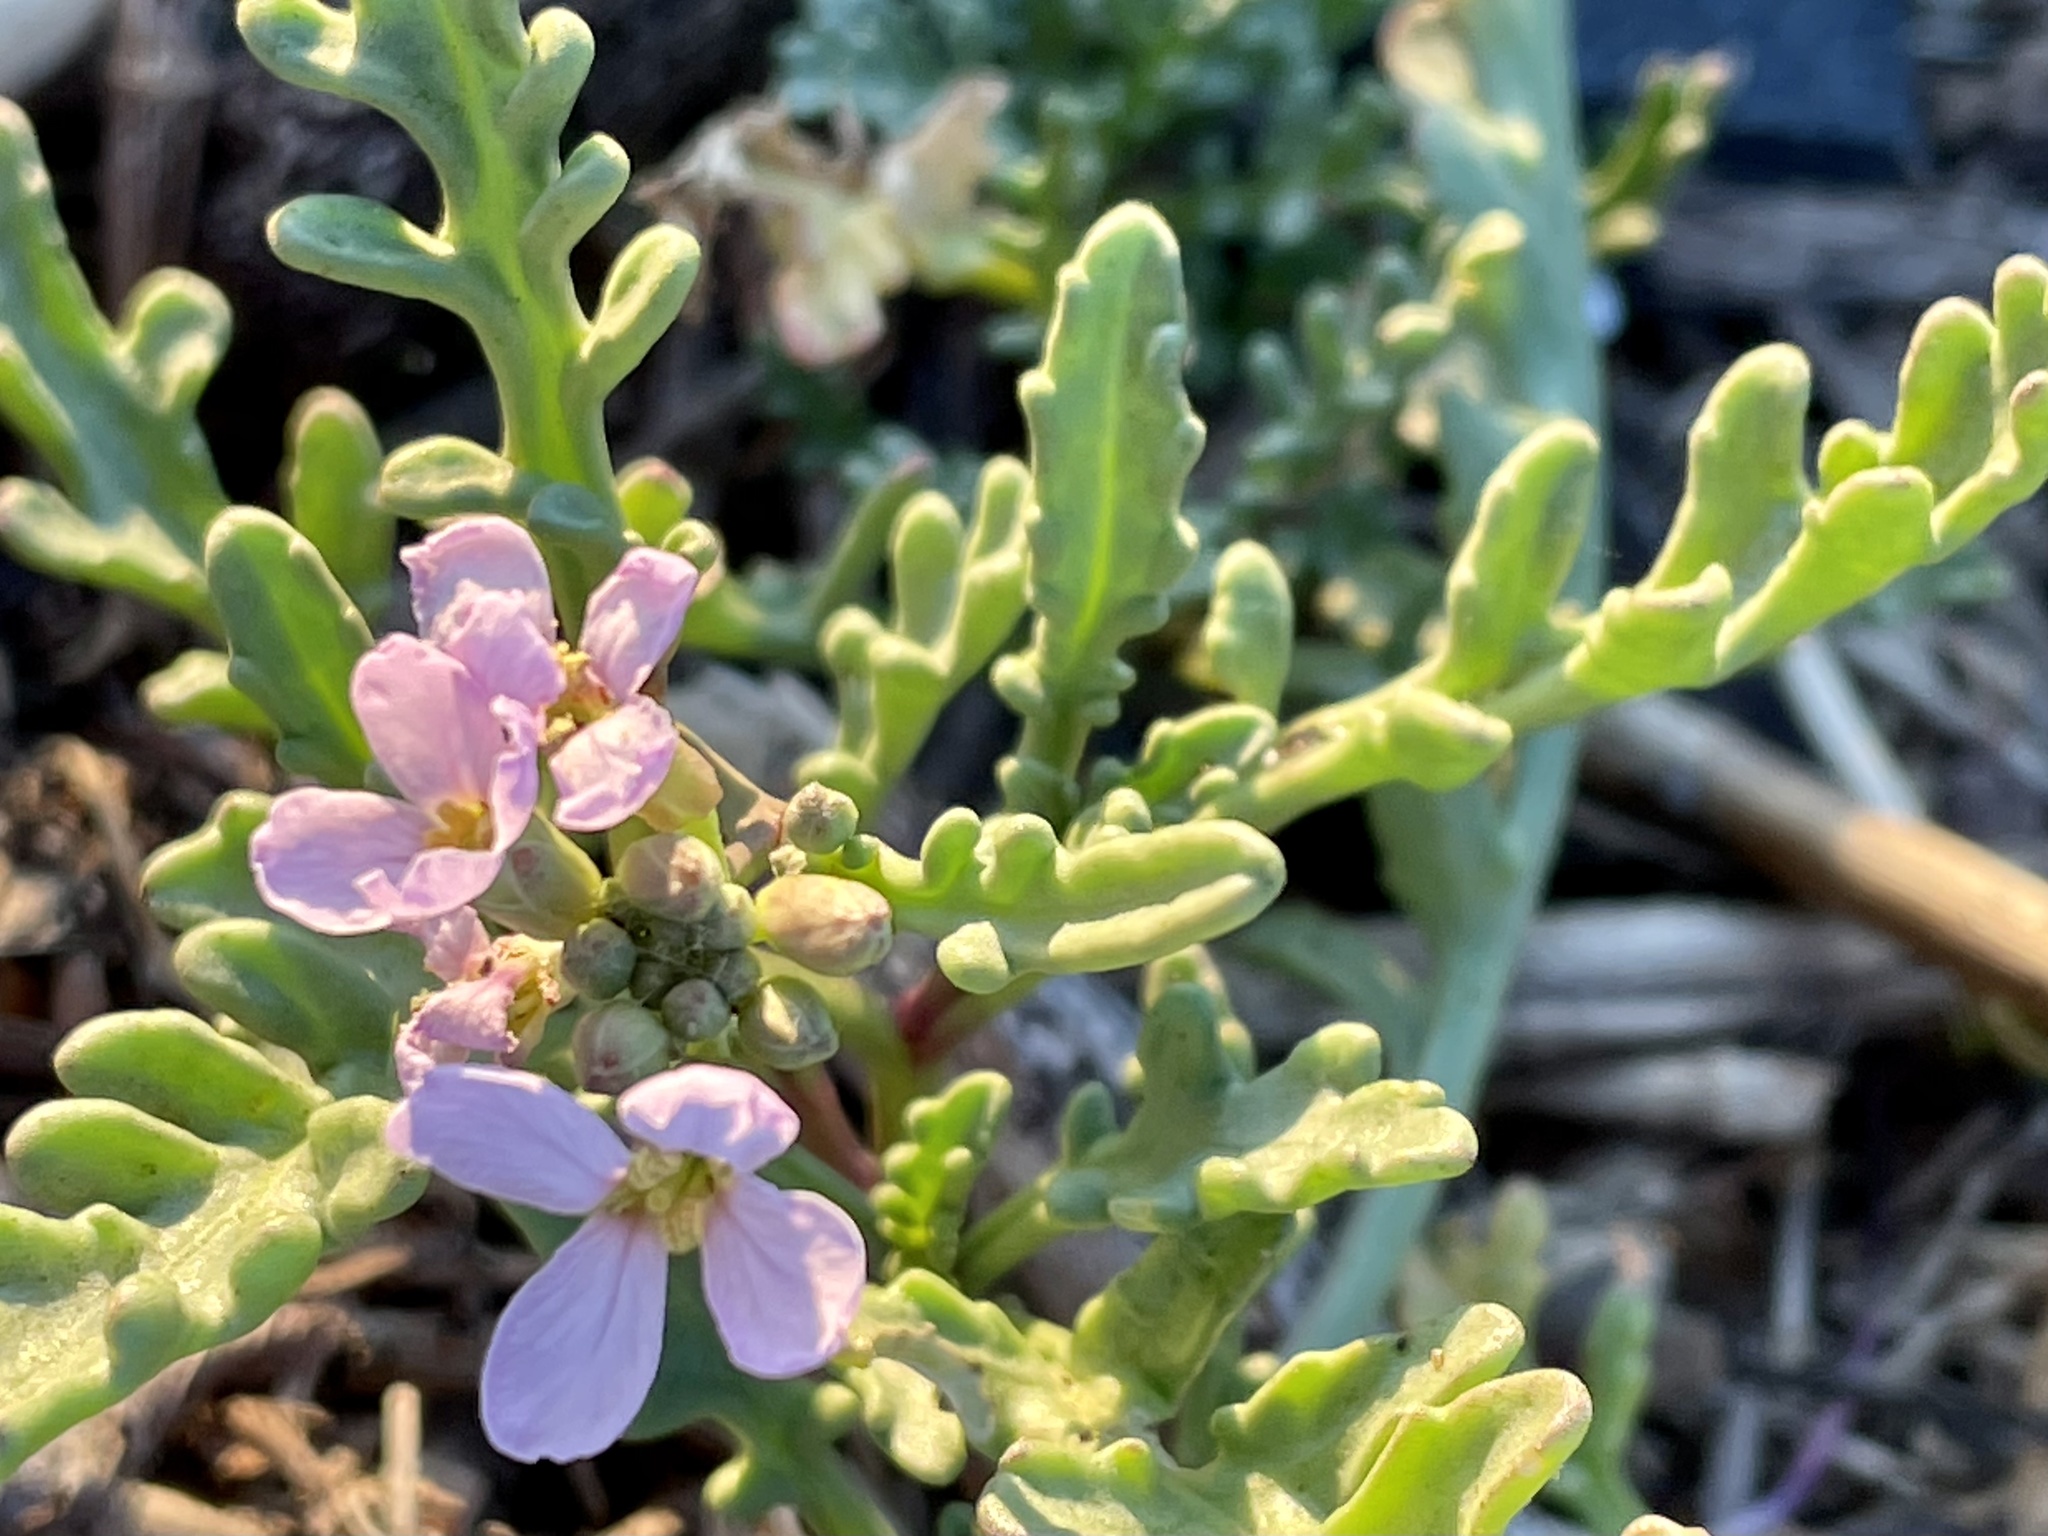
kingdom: Plantae
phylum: Tracheophyta
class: Magnoliopsida
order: Brassicales
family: Brassicaceae
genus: Cakile
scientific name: Cakile maritima
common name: Sea rocket
